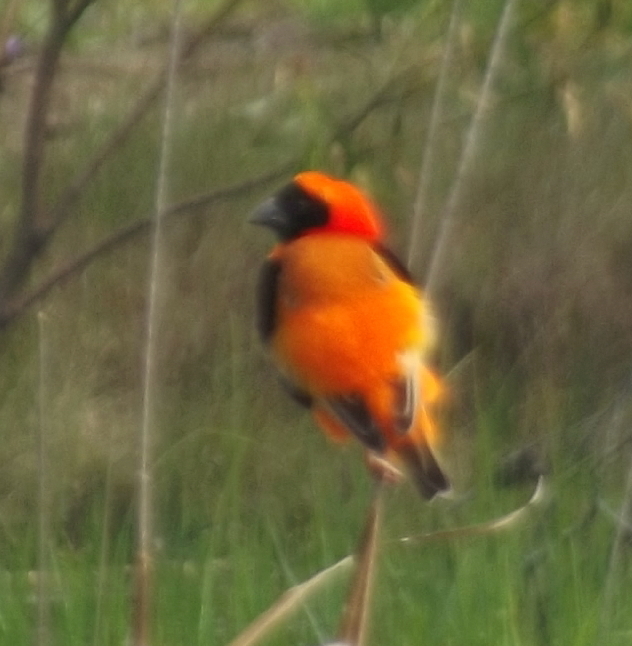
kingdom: Animalia
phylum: Chordata
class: Aves
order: Passeriformes
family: Ploceidae
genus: Euplectes
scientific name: Euplectes orix
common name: Southern red bishop
